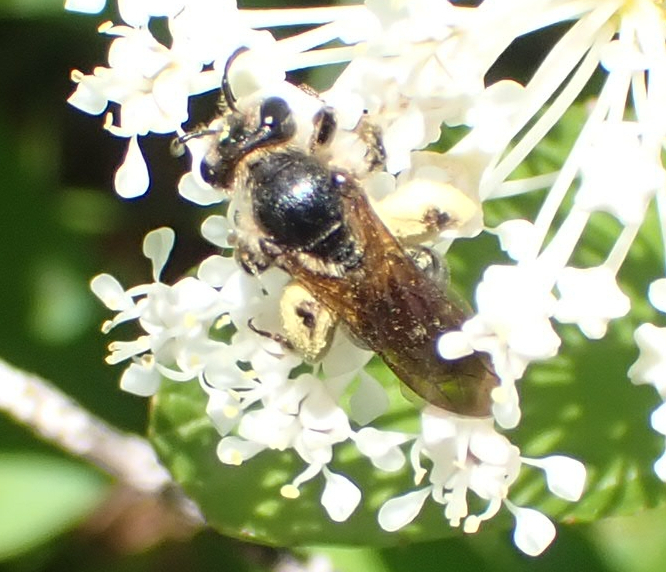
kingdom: Animalia
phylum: Arthropoda
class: Insecta
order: Hymenoptera
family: Andrenidae
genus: Andrena
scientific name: Andrena crataegi
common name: Hawthorn mining bee
